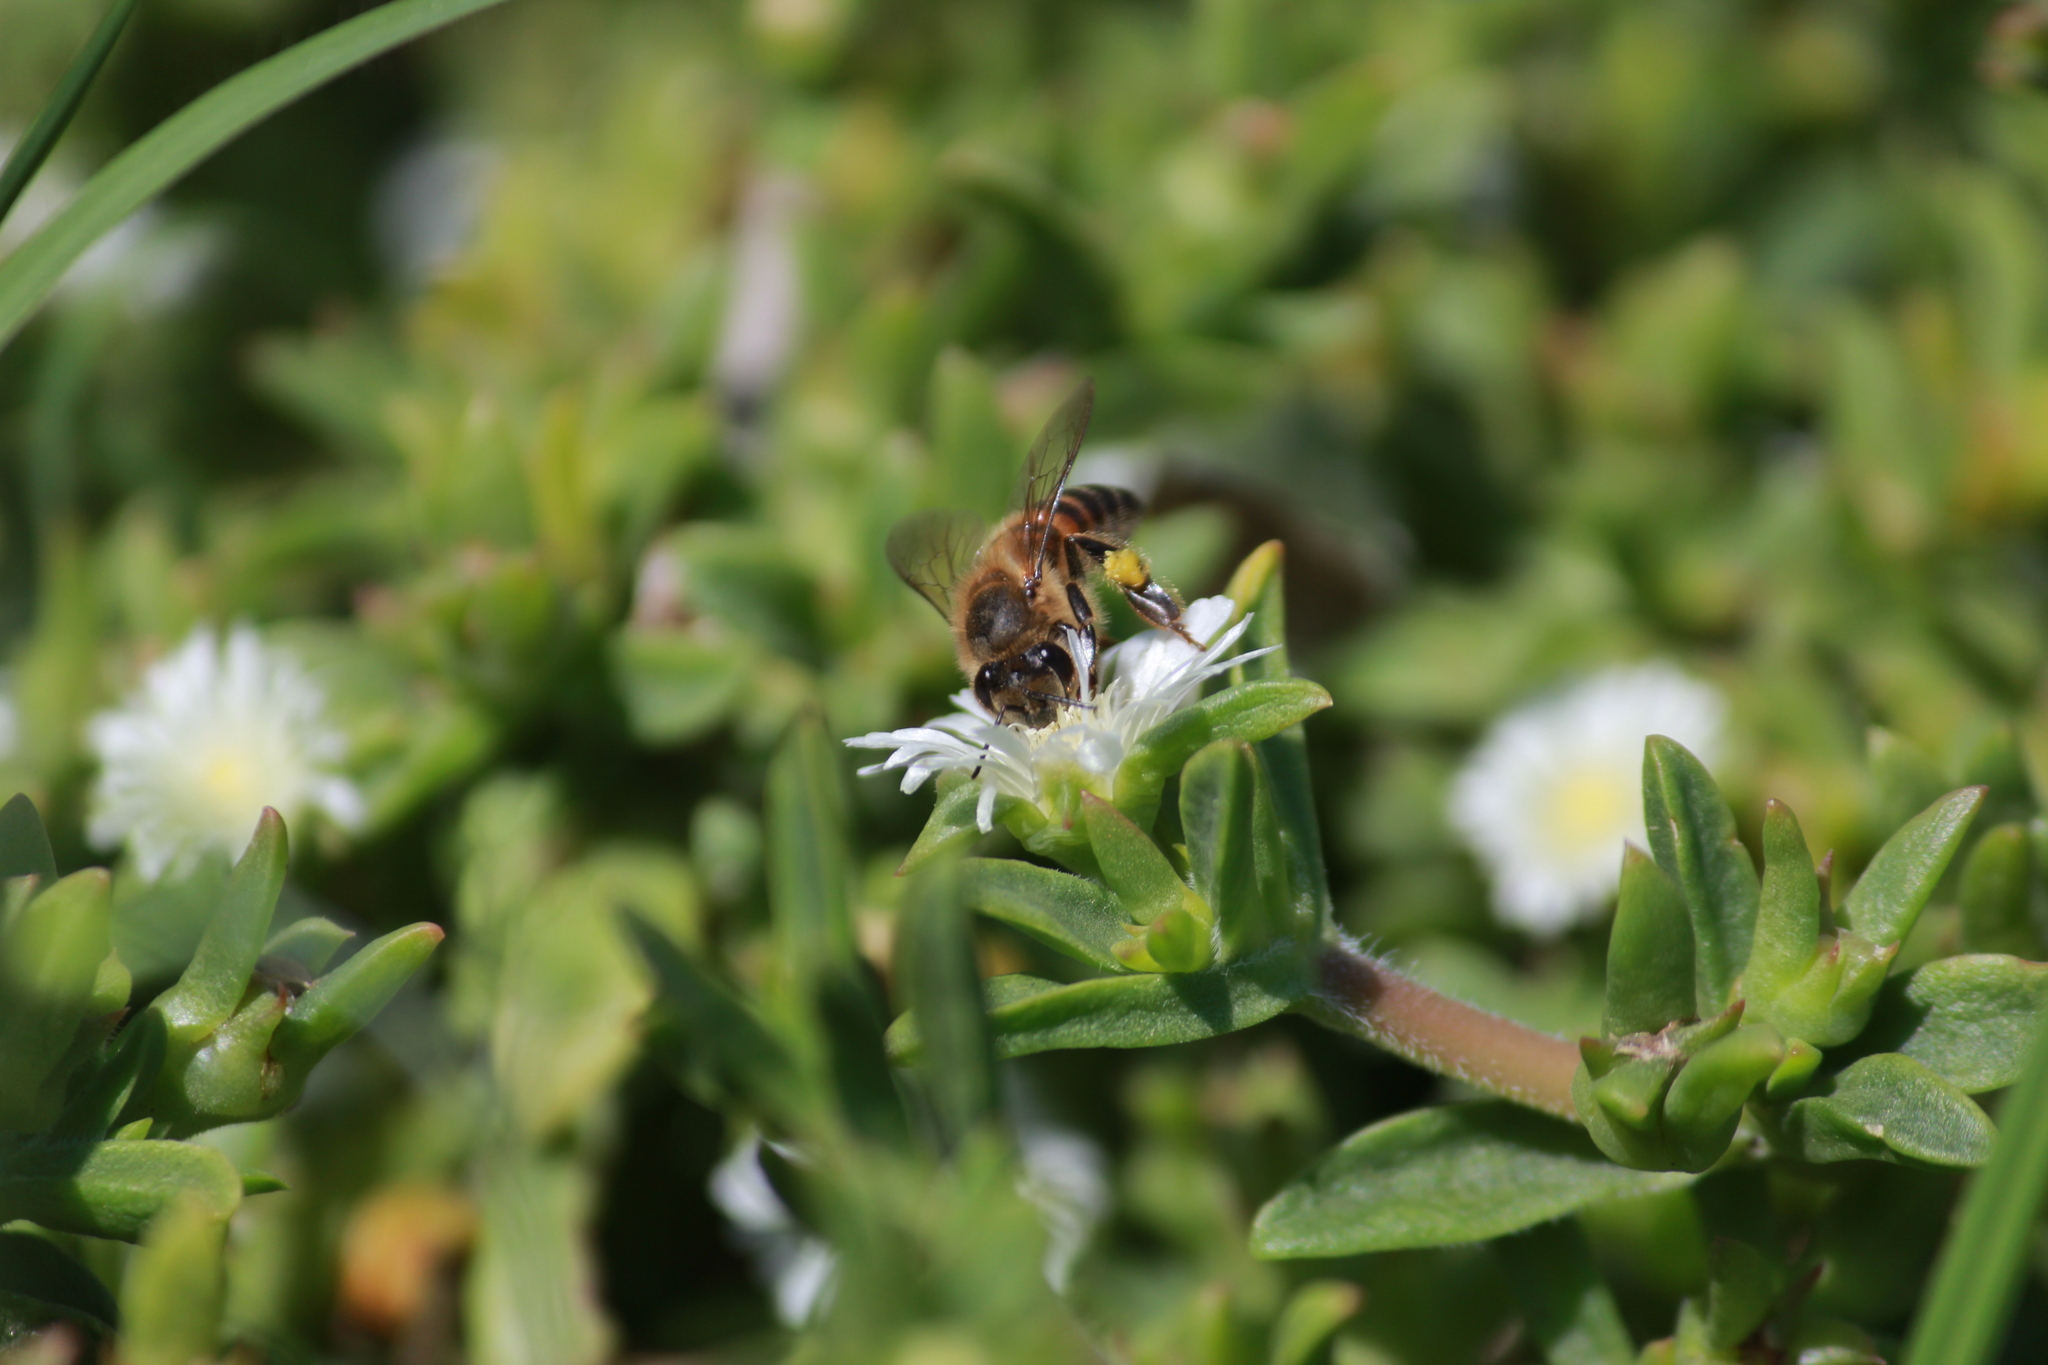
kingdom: Animalia
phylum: Arthropoda
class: Insecta
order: Hymenoptera
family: Apidae
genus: Apis
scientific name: Apis mellifera
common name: Honey bee
